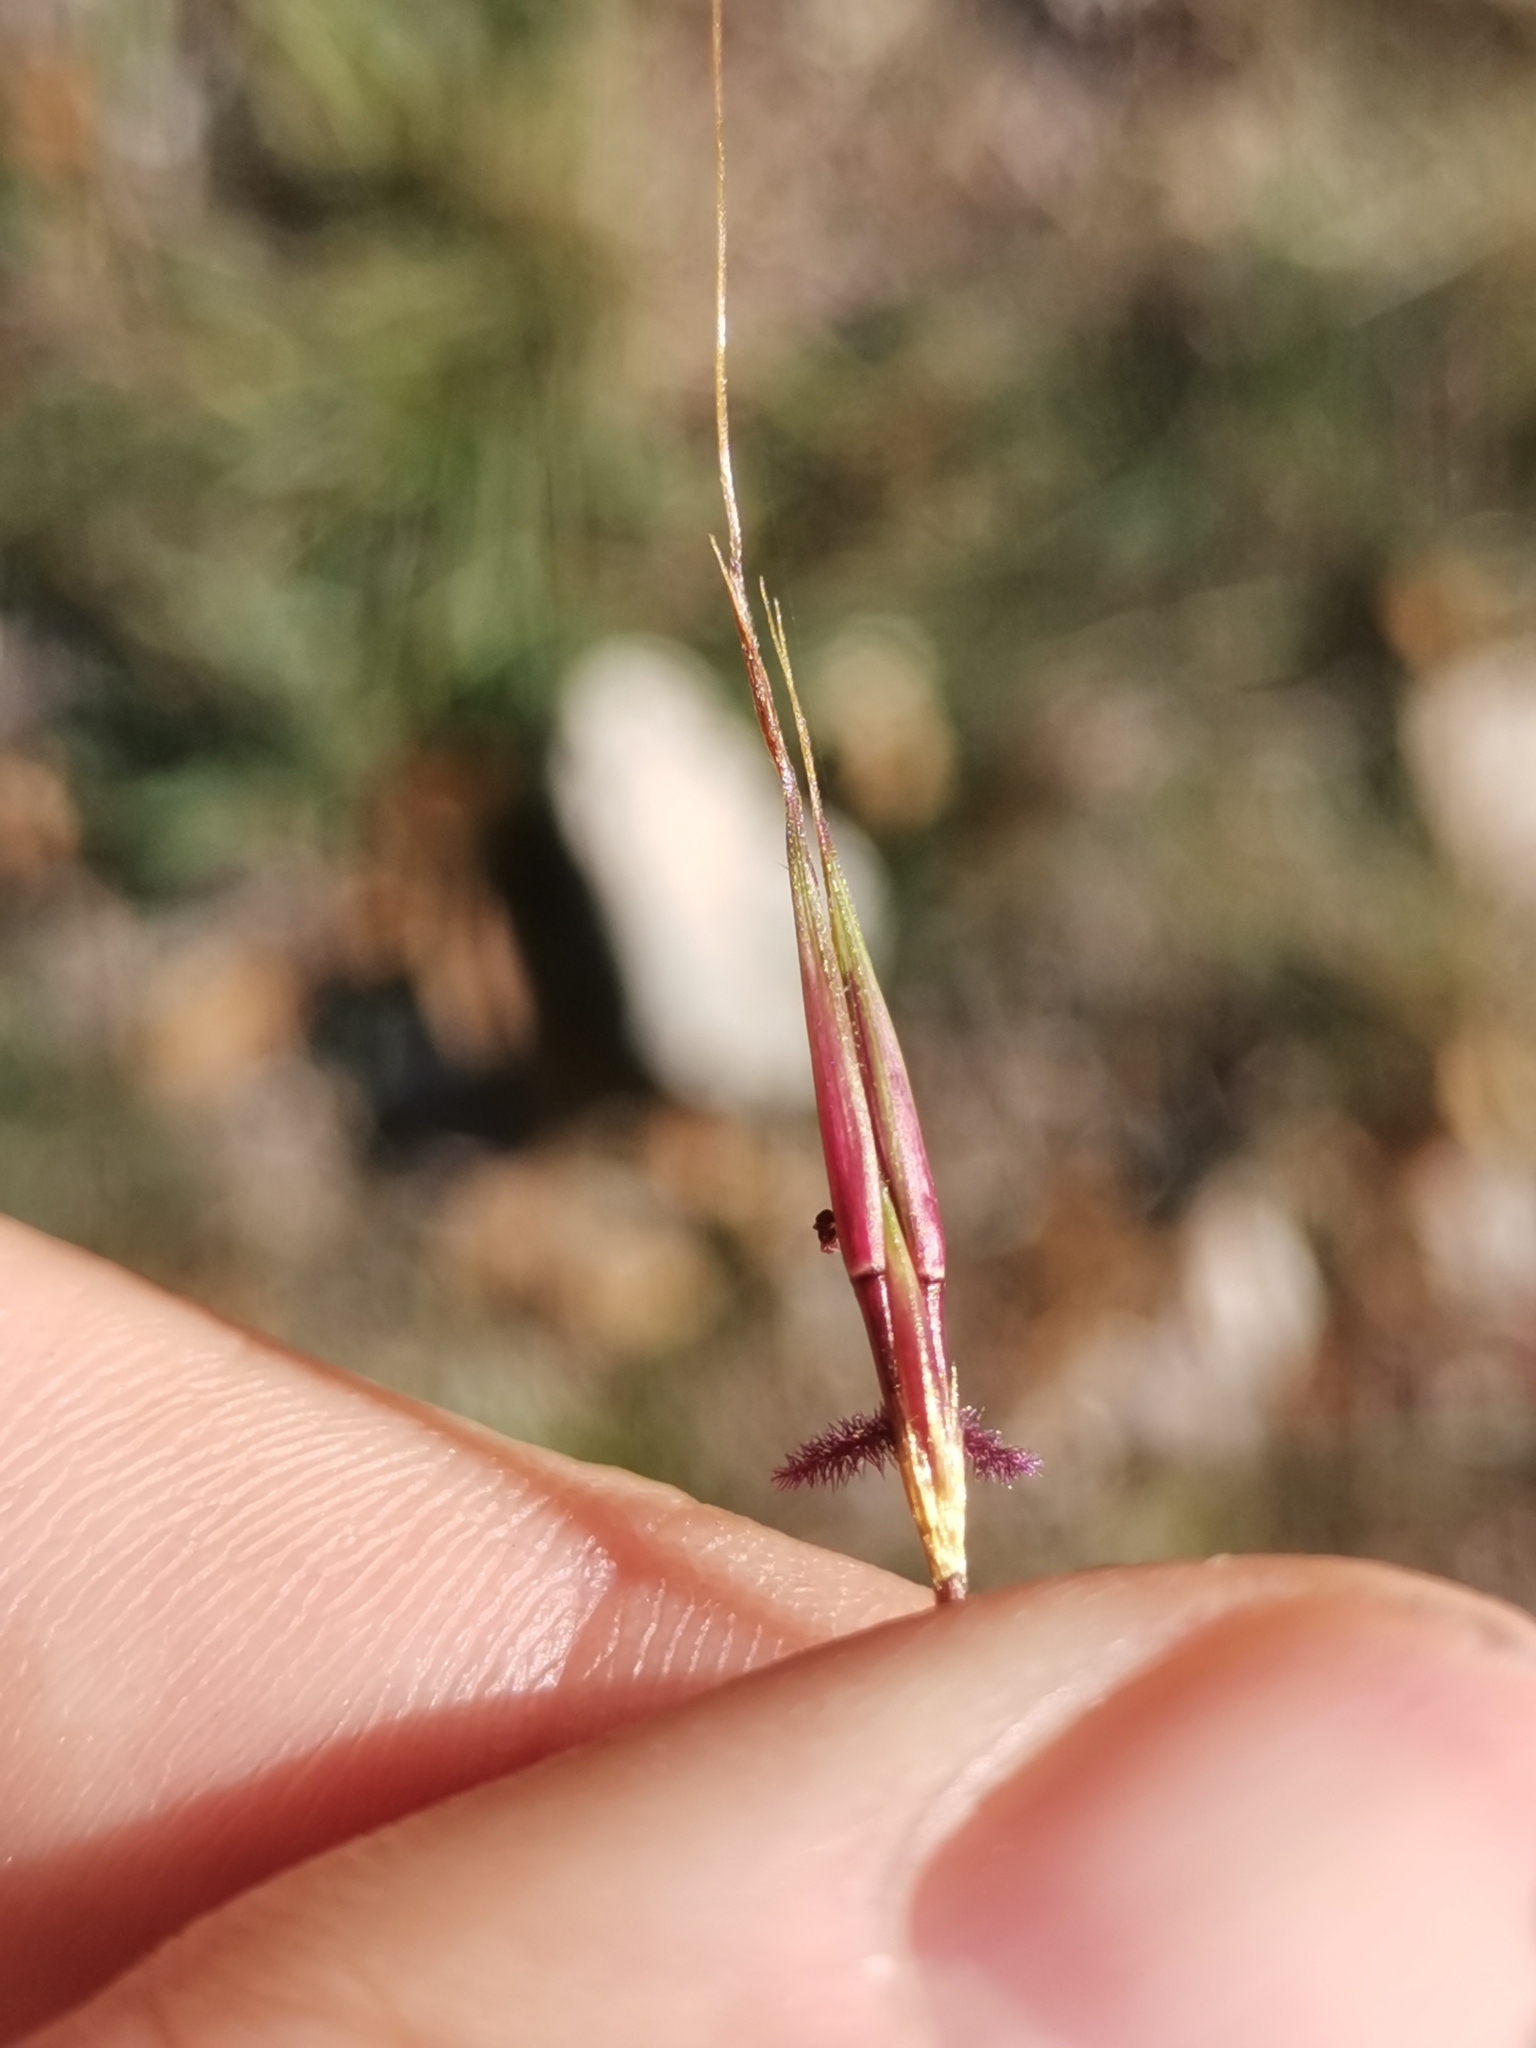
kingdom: Plantae
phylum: Tracheophyta
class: Liliopsida
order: Poales
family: Poaceae
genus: Chrysopogon
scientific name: Chrysopogon gryllus
